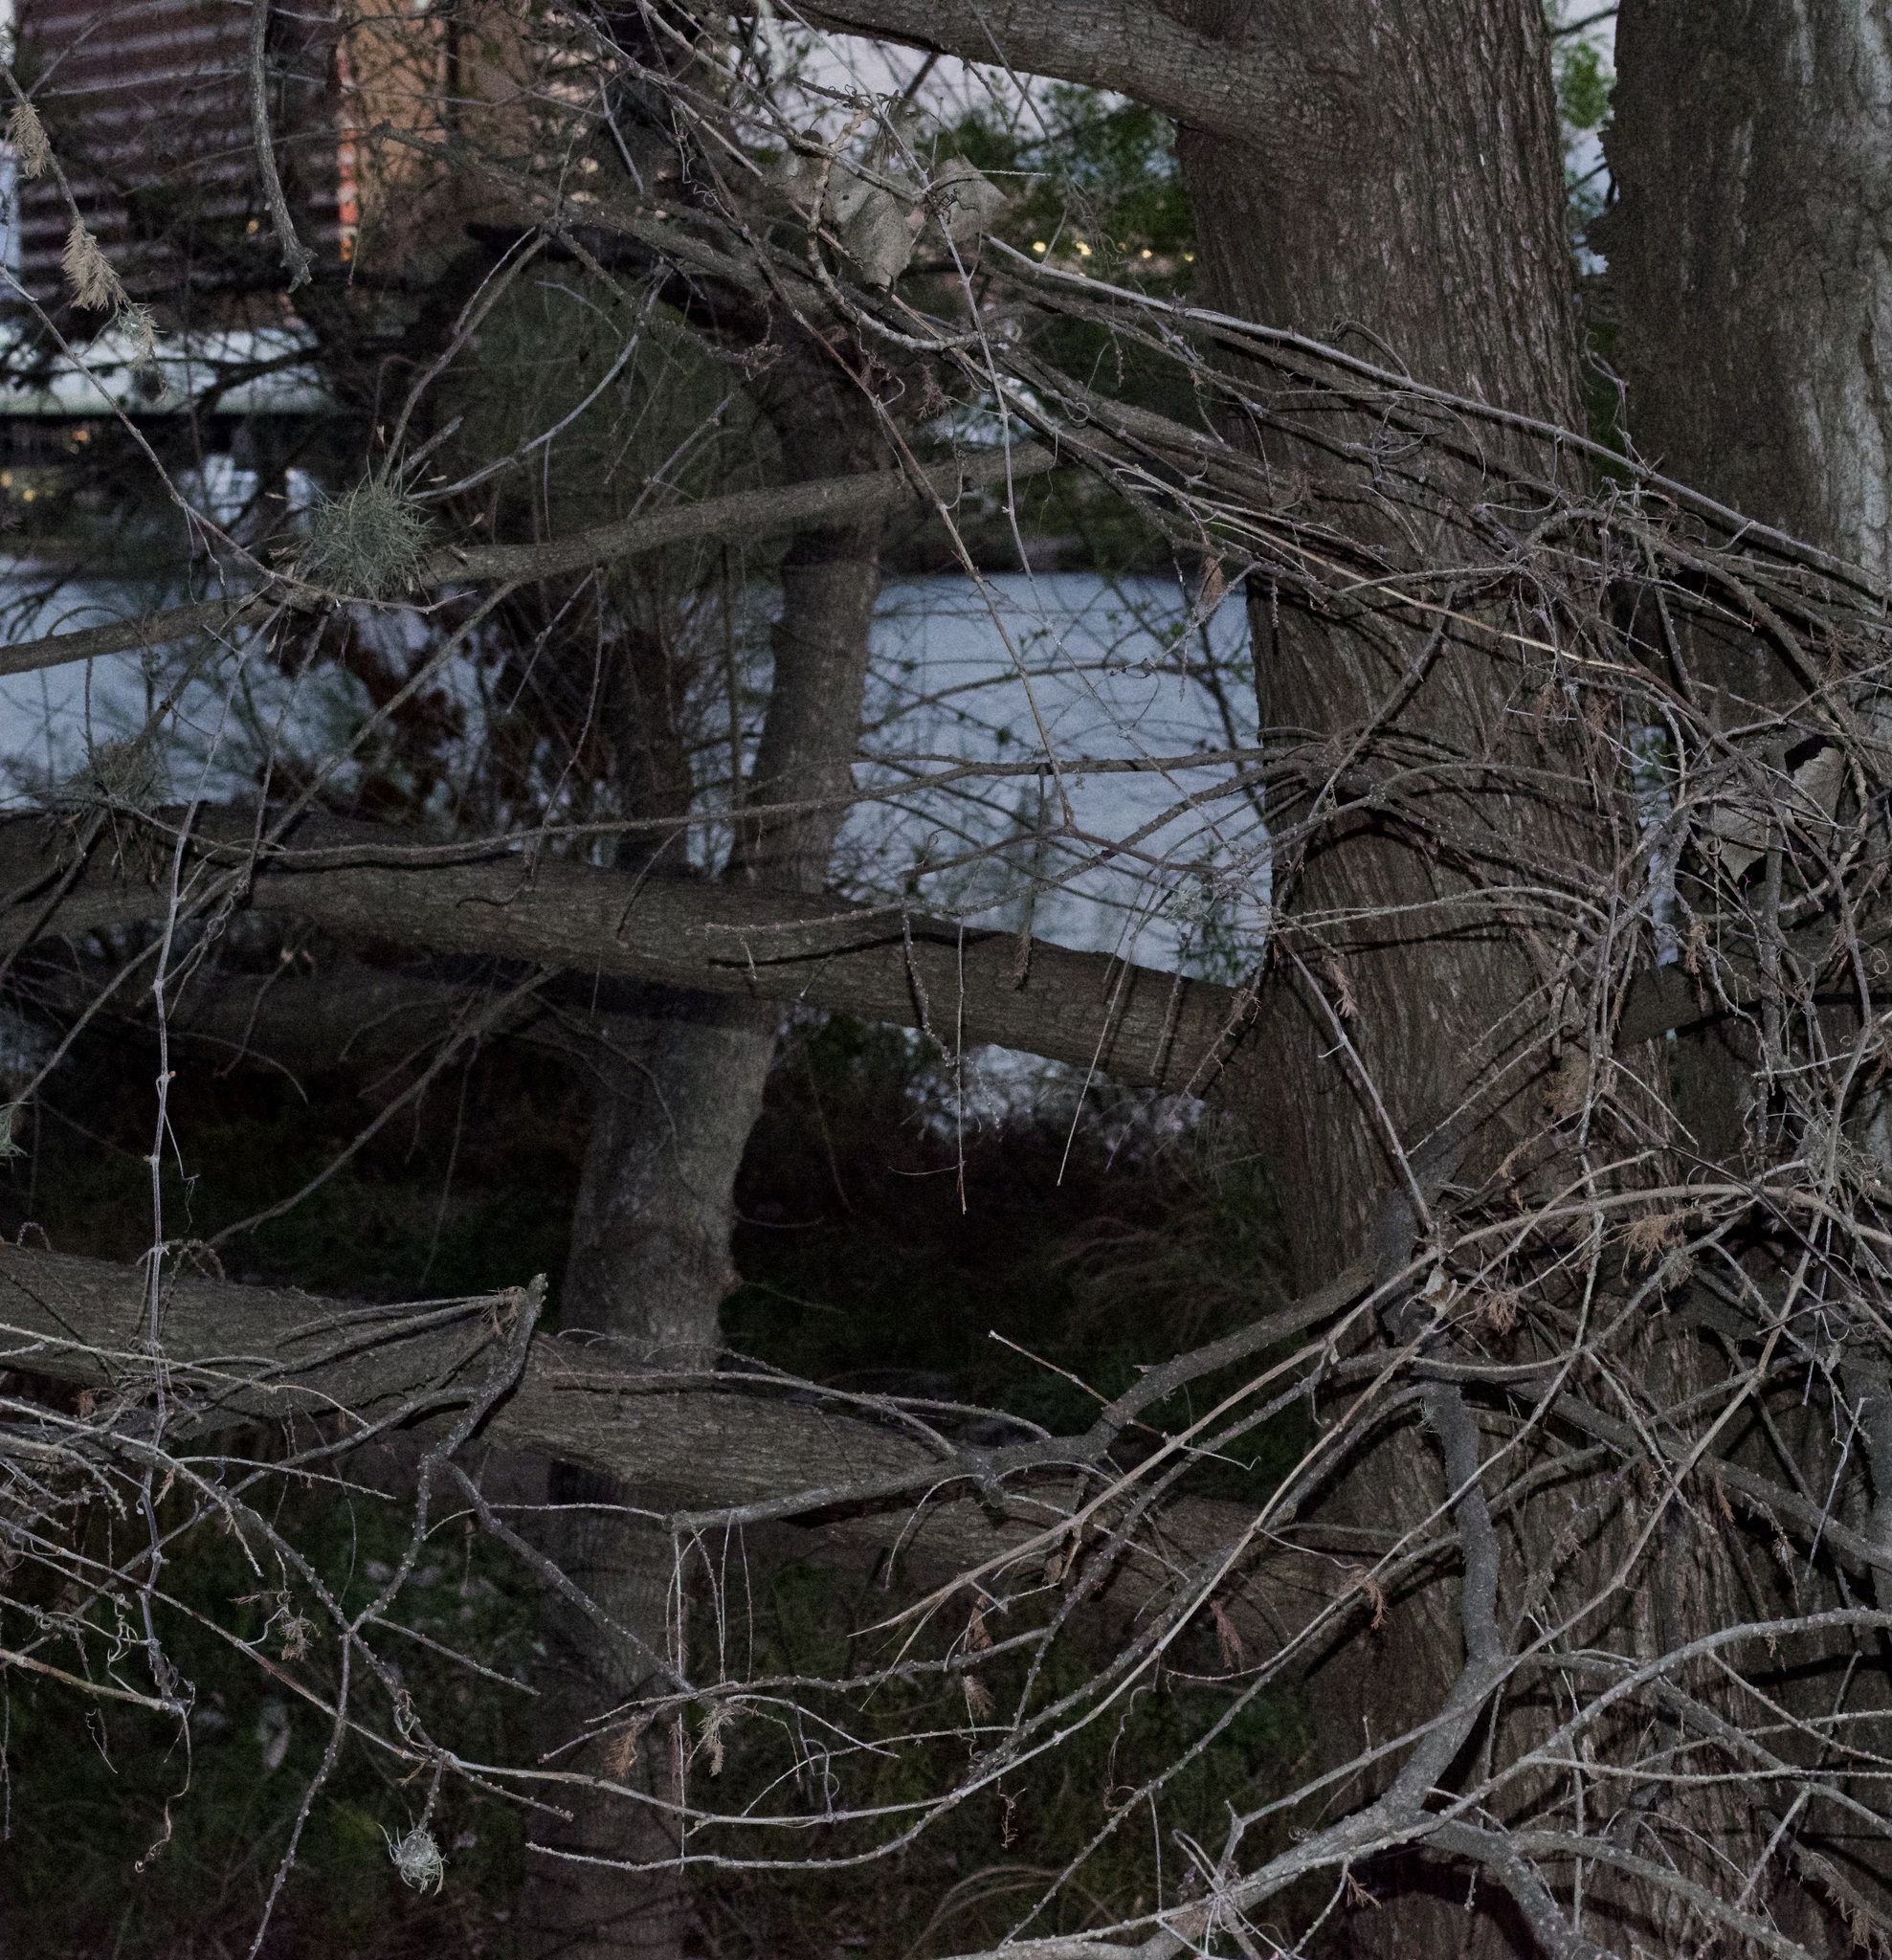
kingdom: Plantae
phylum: Tracheophyta
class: Magnoliopsida
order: Malpighiales
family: Salicaceae
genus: Populus
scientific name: Populus deltoides
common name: Eastern cottonwood
